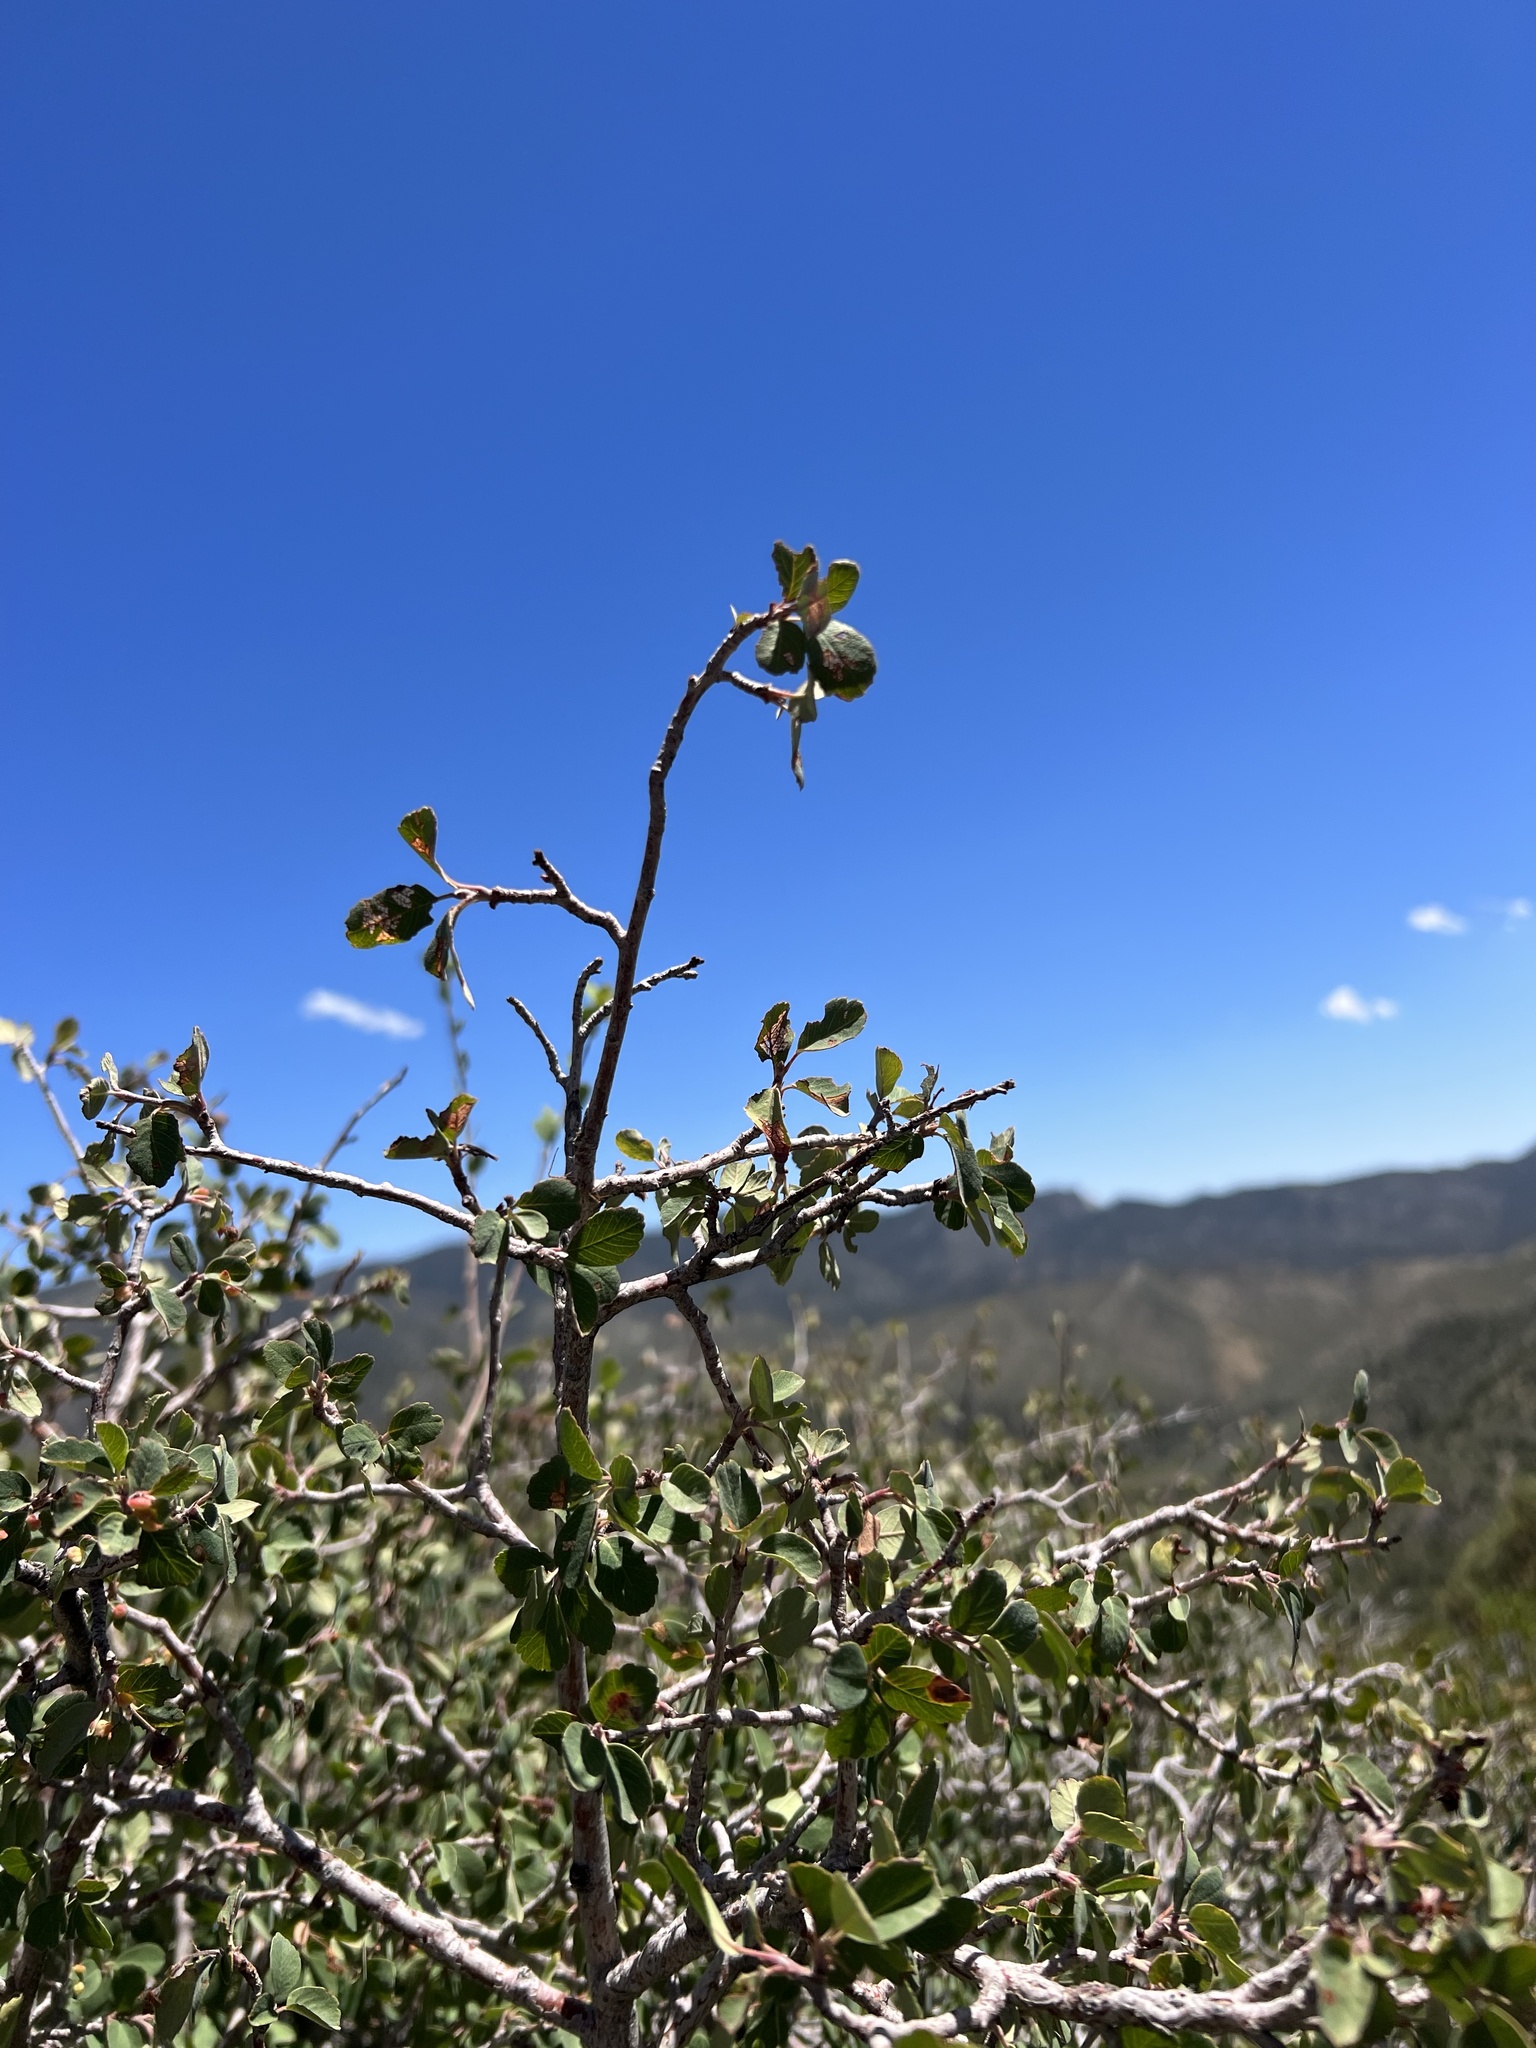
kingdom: Plantae
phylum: Tracheophyta
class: Magnoliopsida
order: Rosales
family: Rosaceae
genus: Amelanchier
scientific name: Amelanchier utahensis
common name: Utah serviceberry
